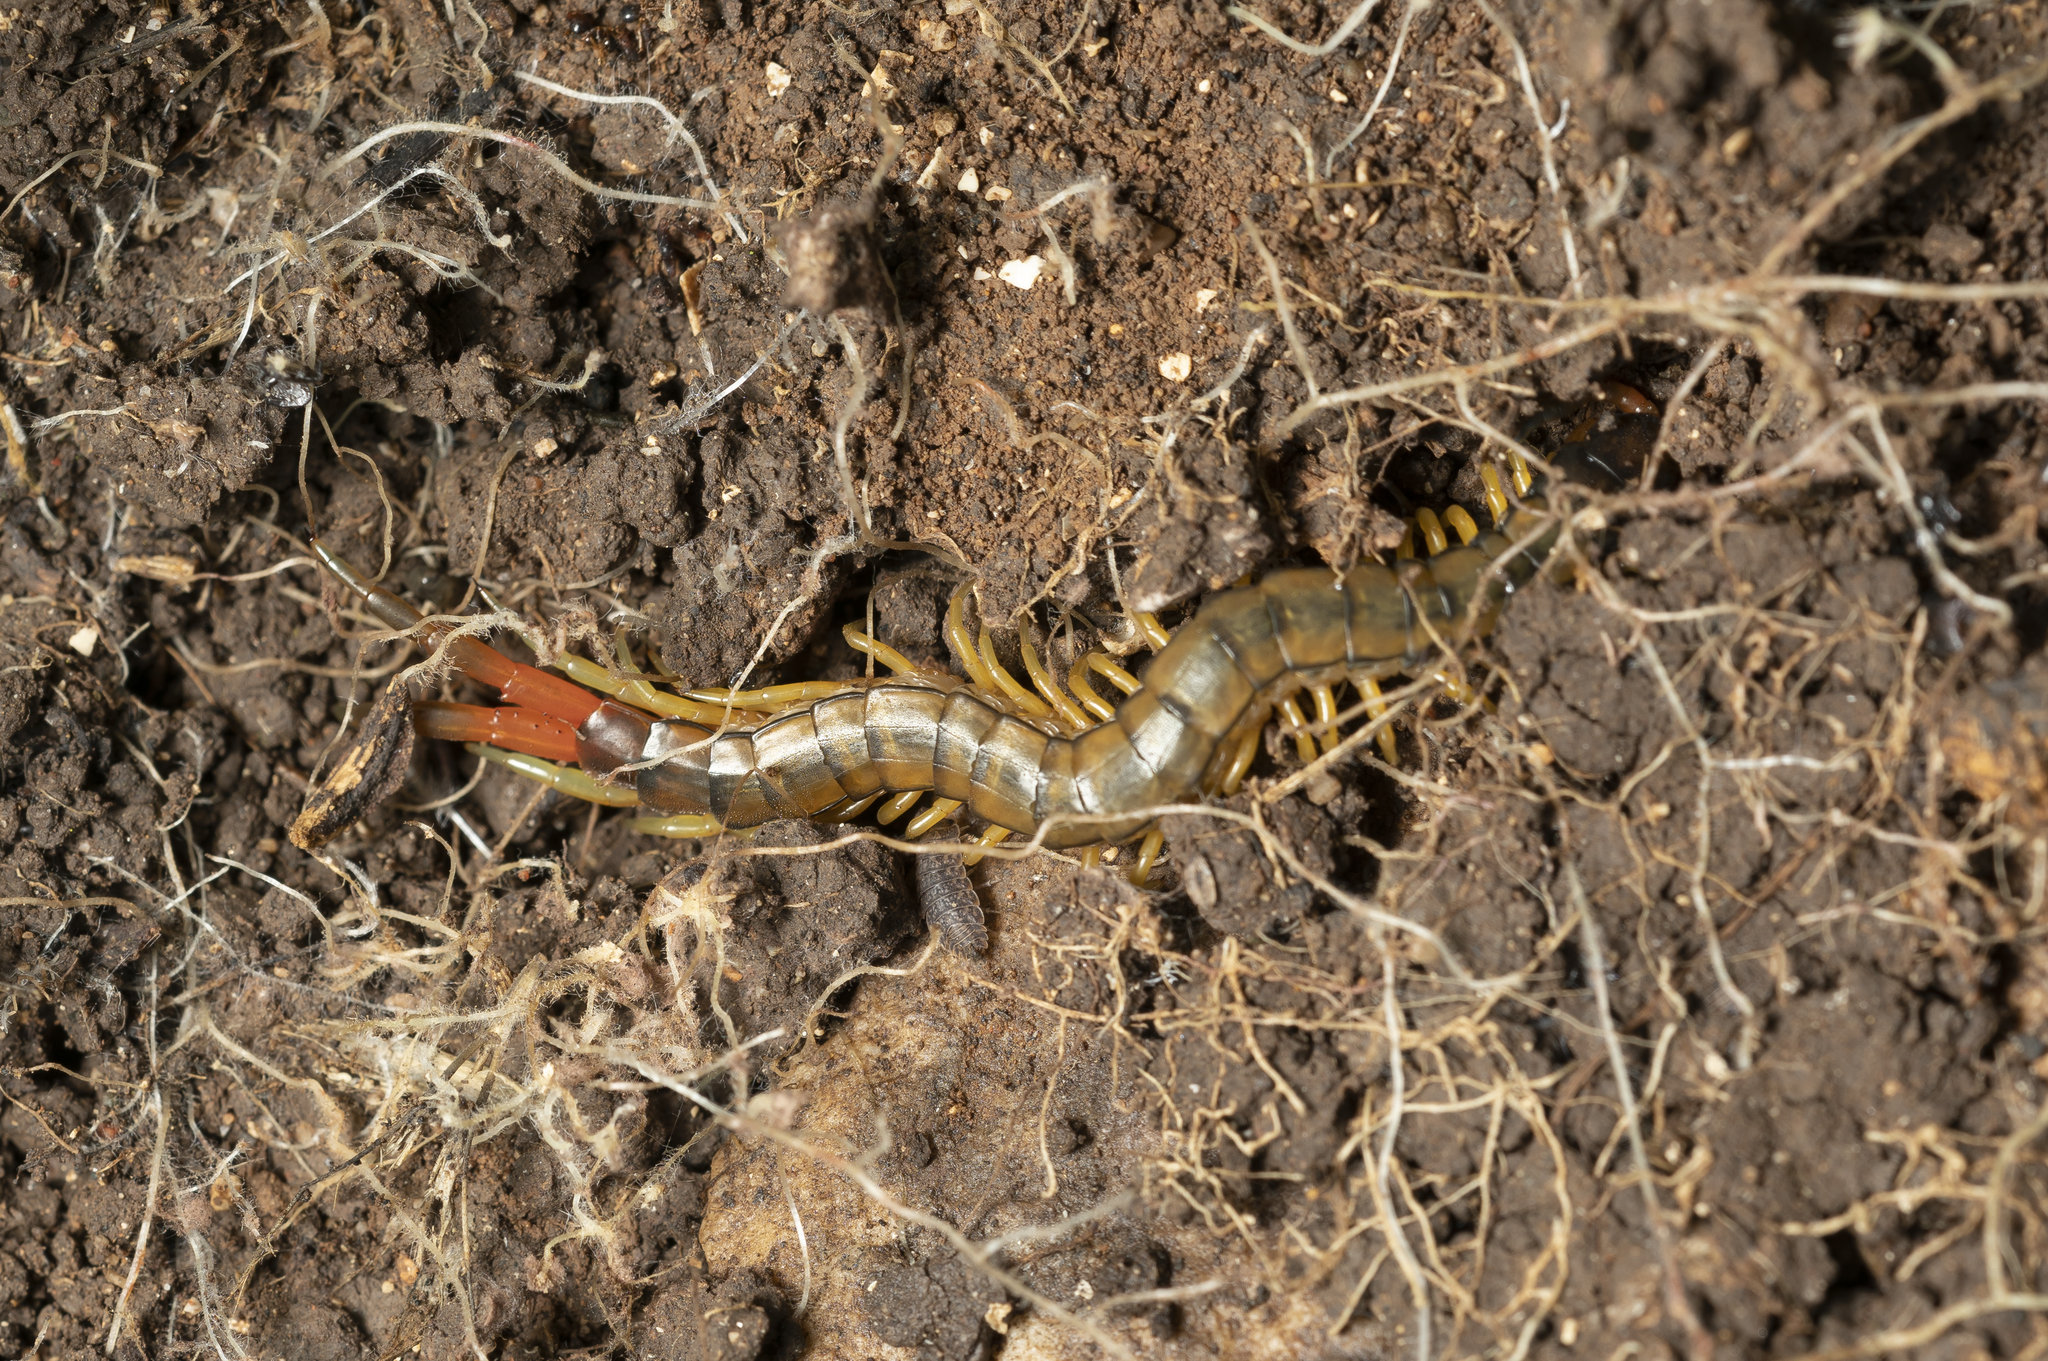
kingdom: Animalia
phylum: Arthropoda
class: Chilopoda
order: Scolopendromorpha
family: Scolopendridae
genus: Scolopendra
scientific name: Scolopendra cingulata
